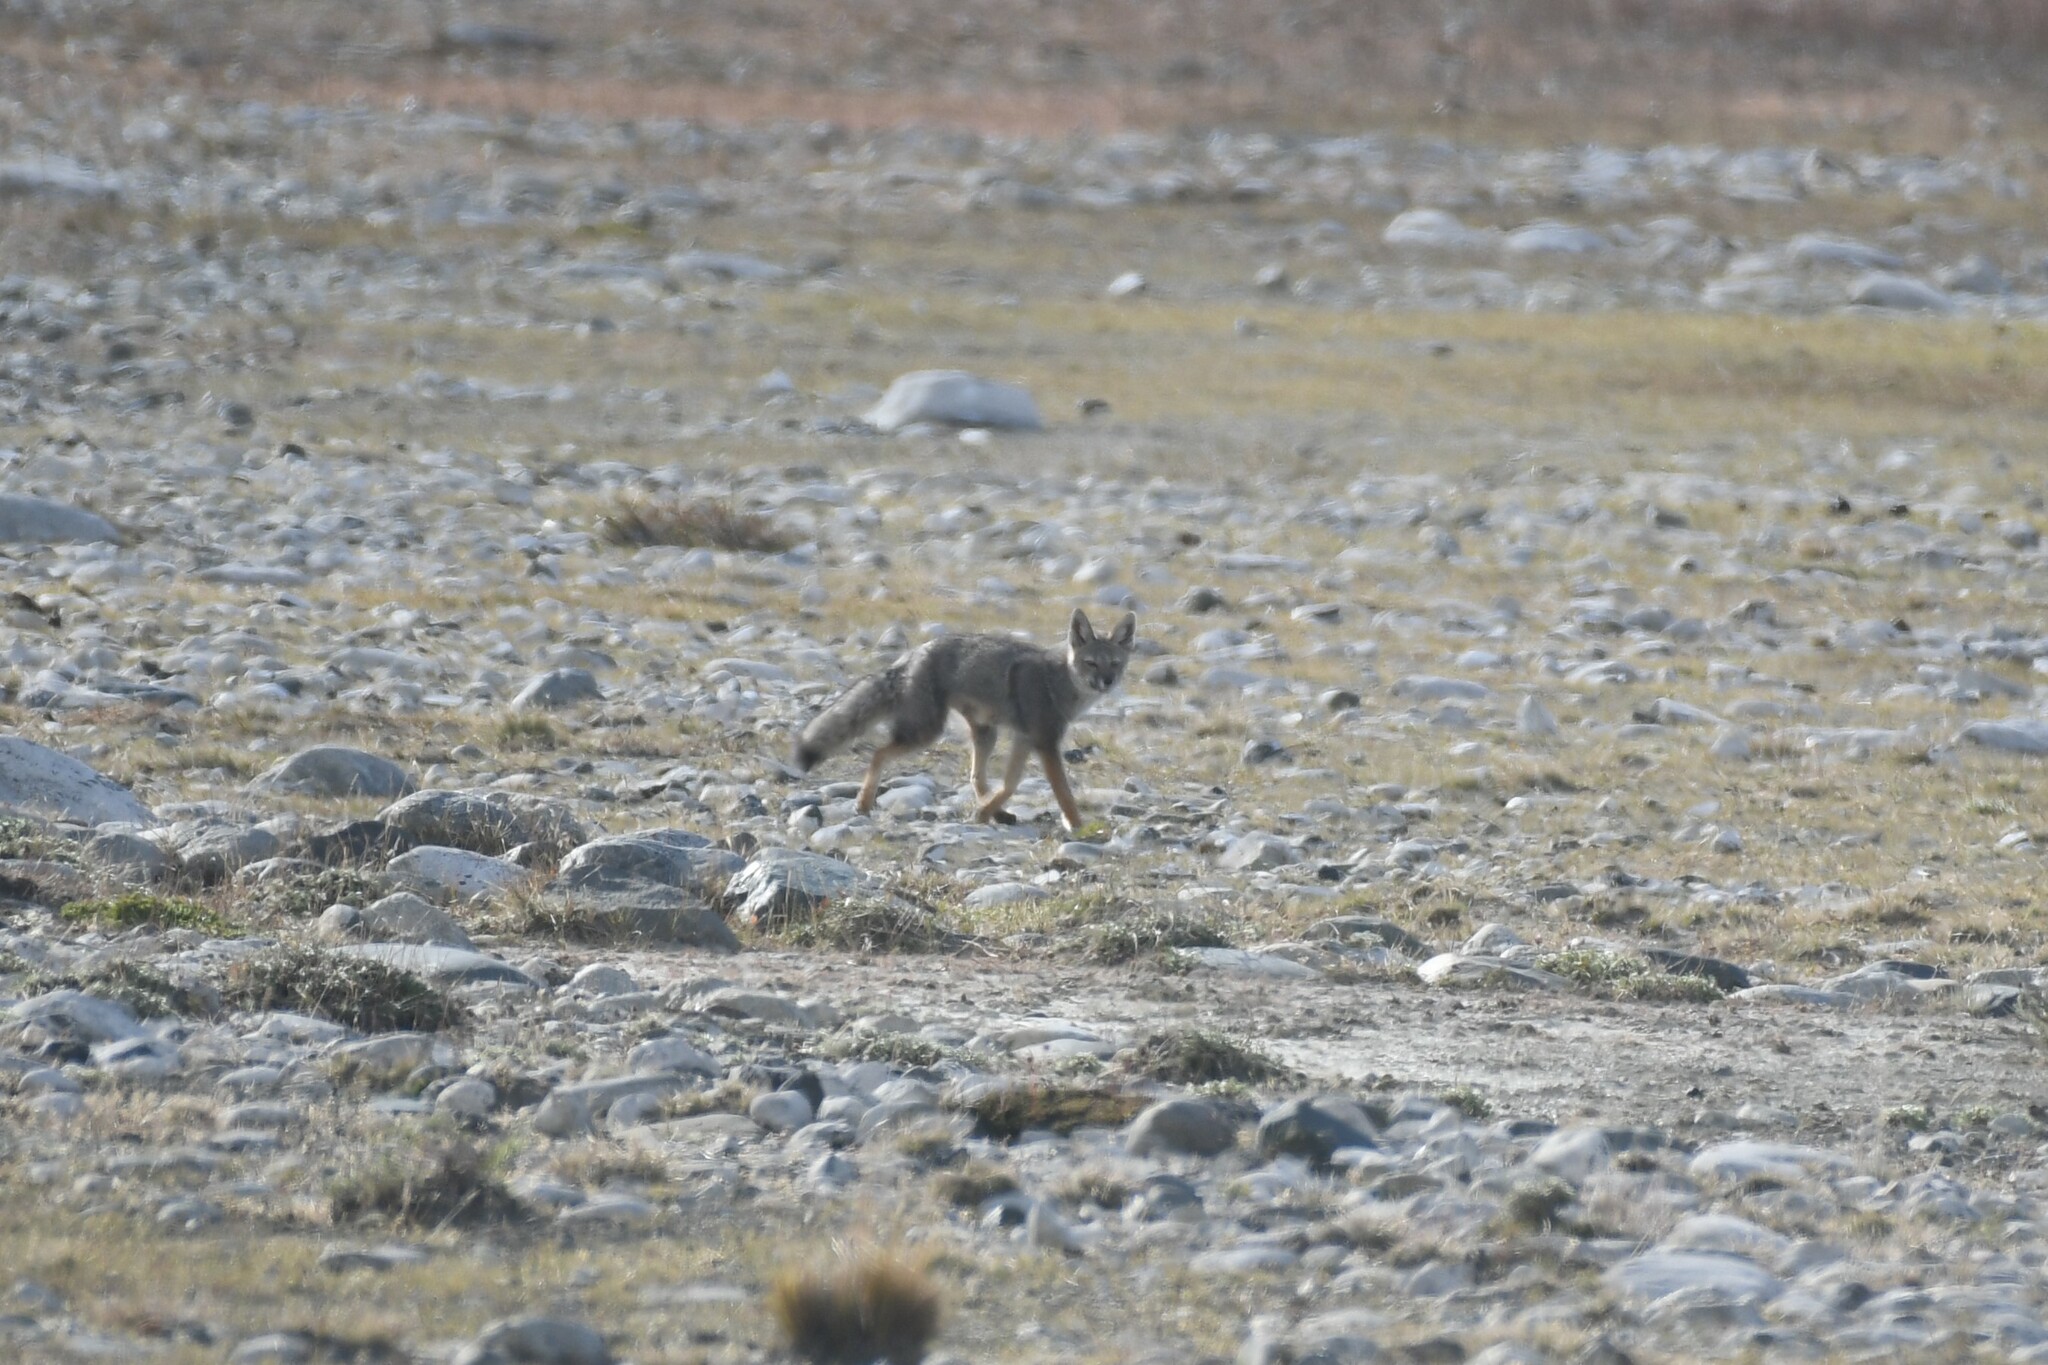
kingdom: Animalia
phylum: Chordata
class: Mammalia
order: Carnivora
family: Canidae
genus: Lycalopex
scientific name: Lycalopex gymnocercus
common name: Pampas fox
